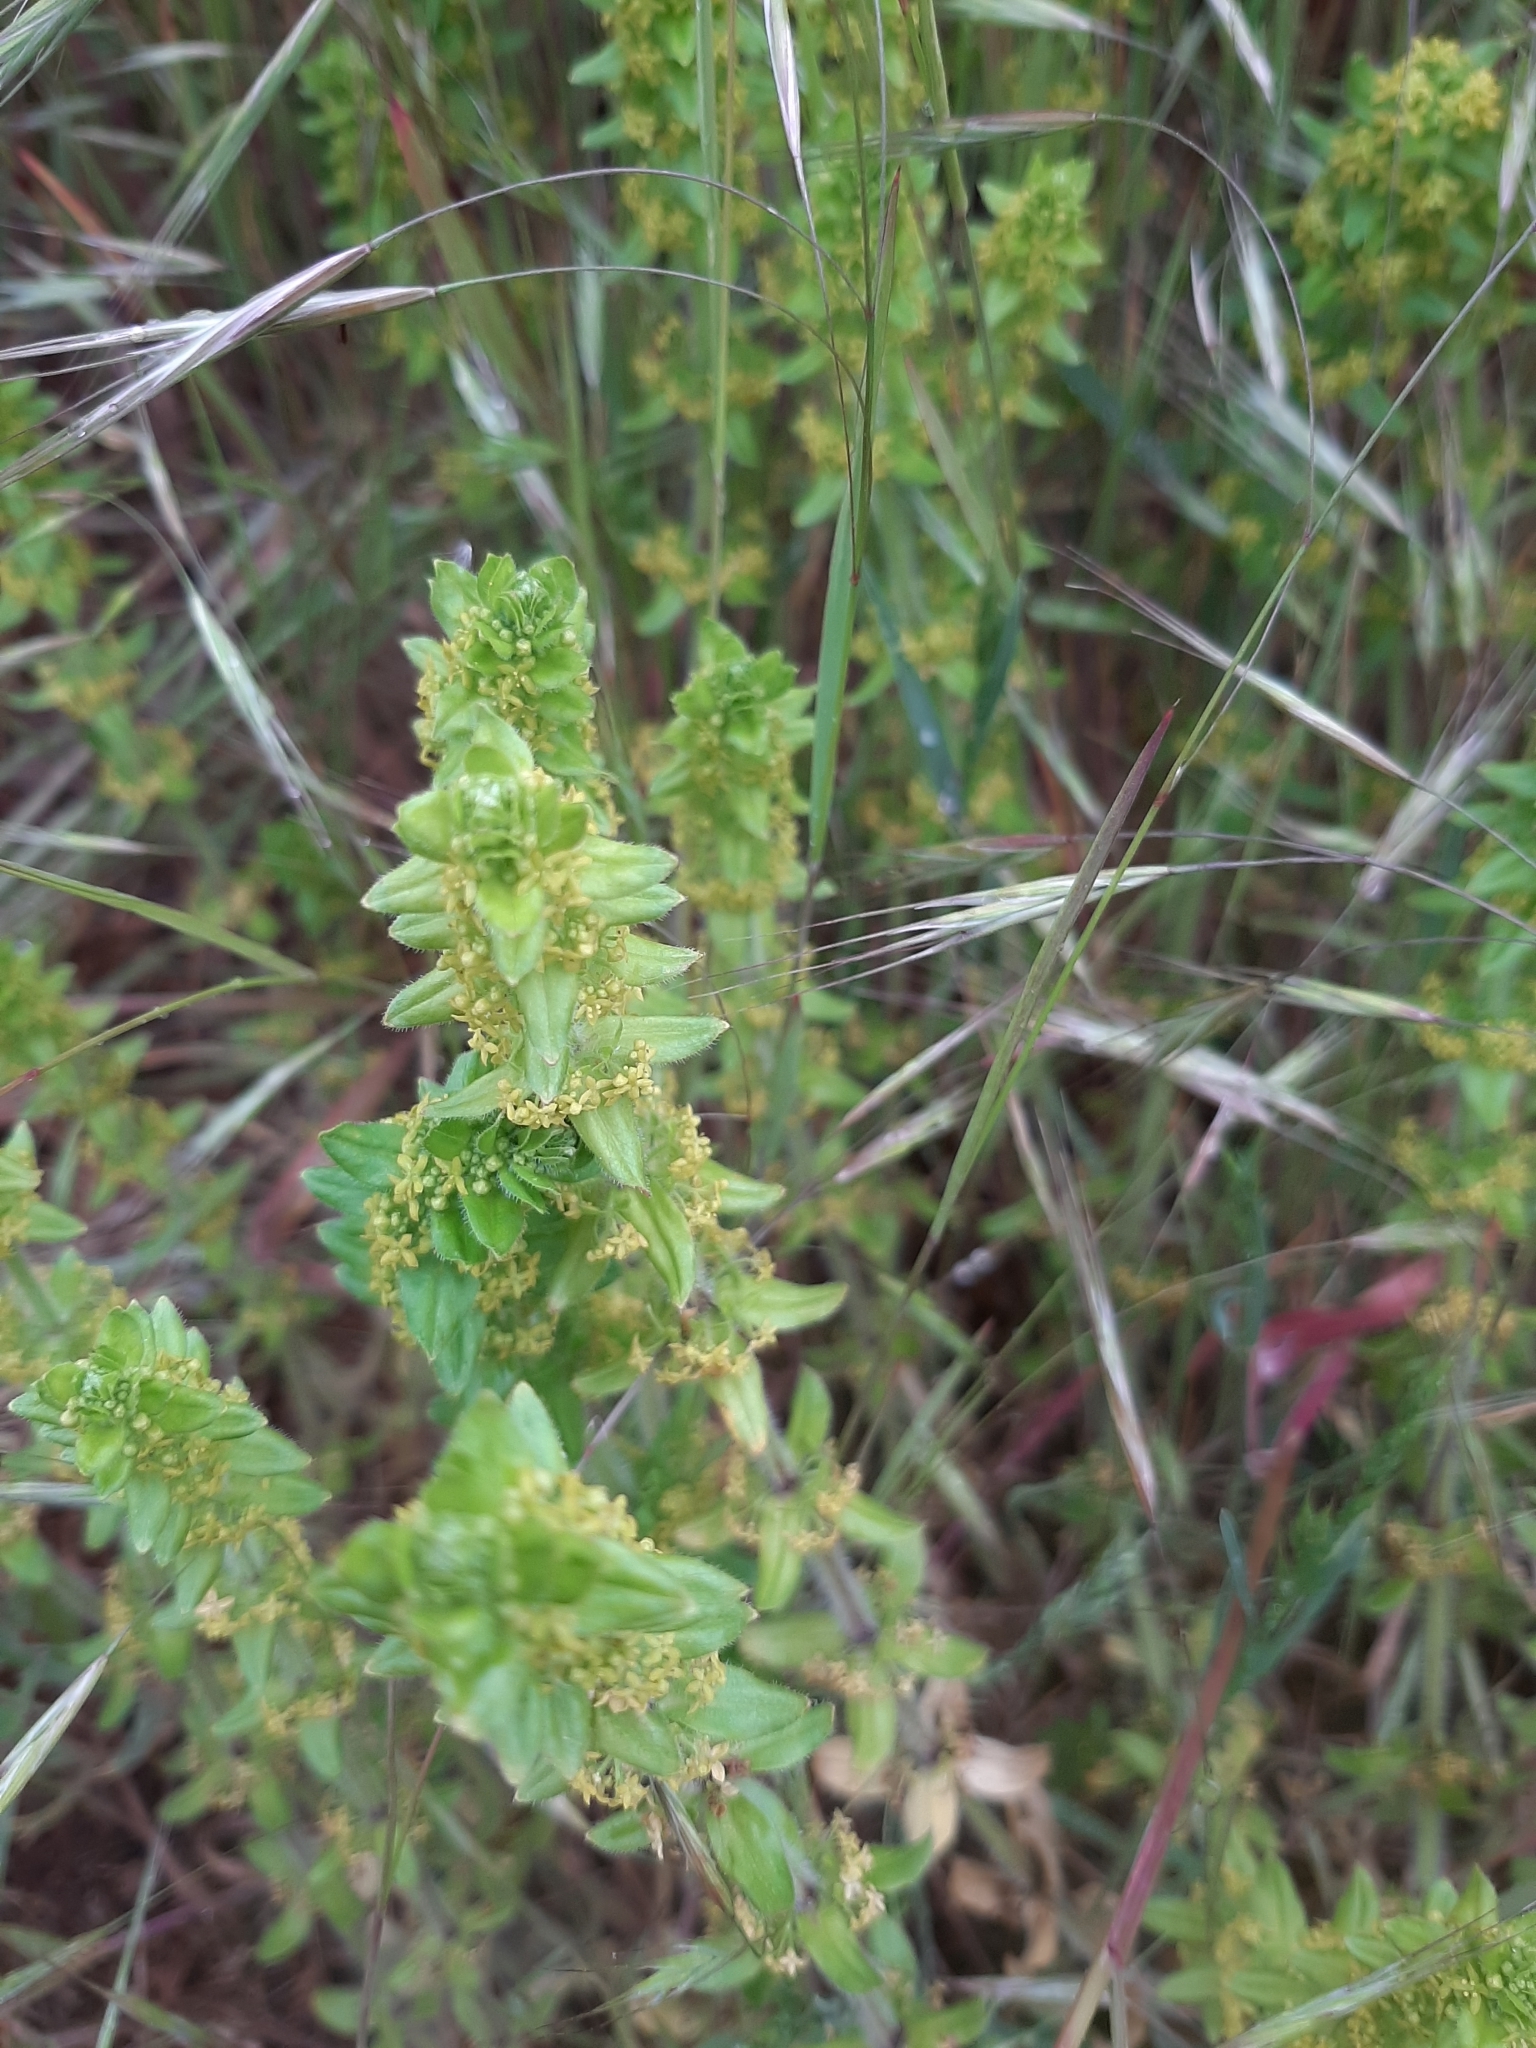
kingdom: Plantae
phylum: Tracheophyta
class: Magnoliopsida
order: Gentianales
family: Rubiaceae
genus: Cruciata
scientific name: Cruciata laevipes
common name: Crosswort
